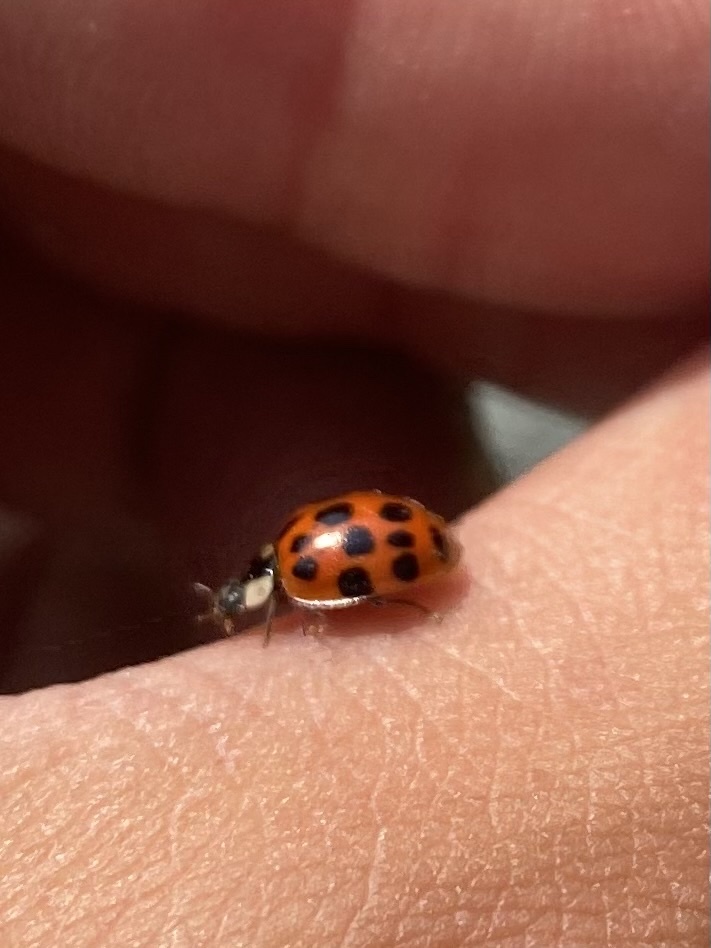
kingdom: Animalia
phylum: Arthropoda
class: Insecta
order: Coleoptera
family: Coccinellidae
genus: Harmonia
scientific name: Harmonia axyridis
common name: Harlequin ladybird
